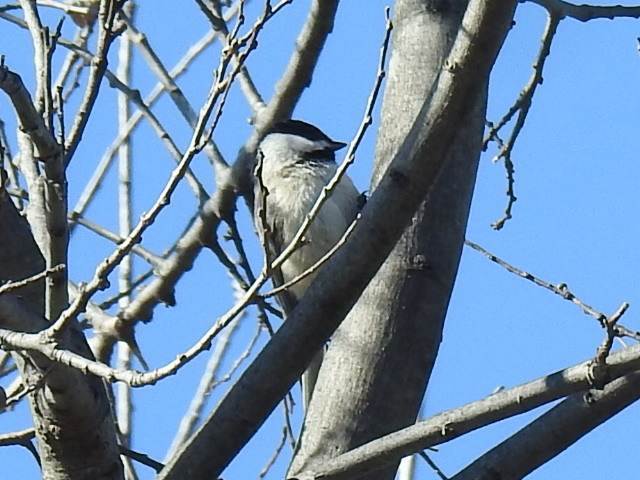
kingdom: Animalia
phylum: Chordata
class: Aves
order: Passeriformes
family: Paridae
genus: Poecile
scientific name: Poecile carolinensis
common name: Carolina chickadee
